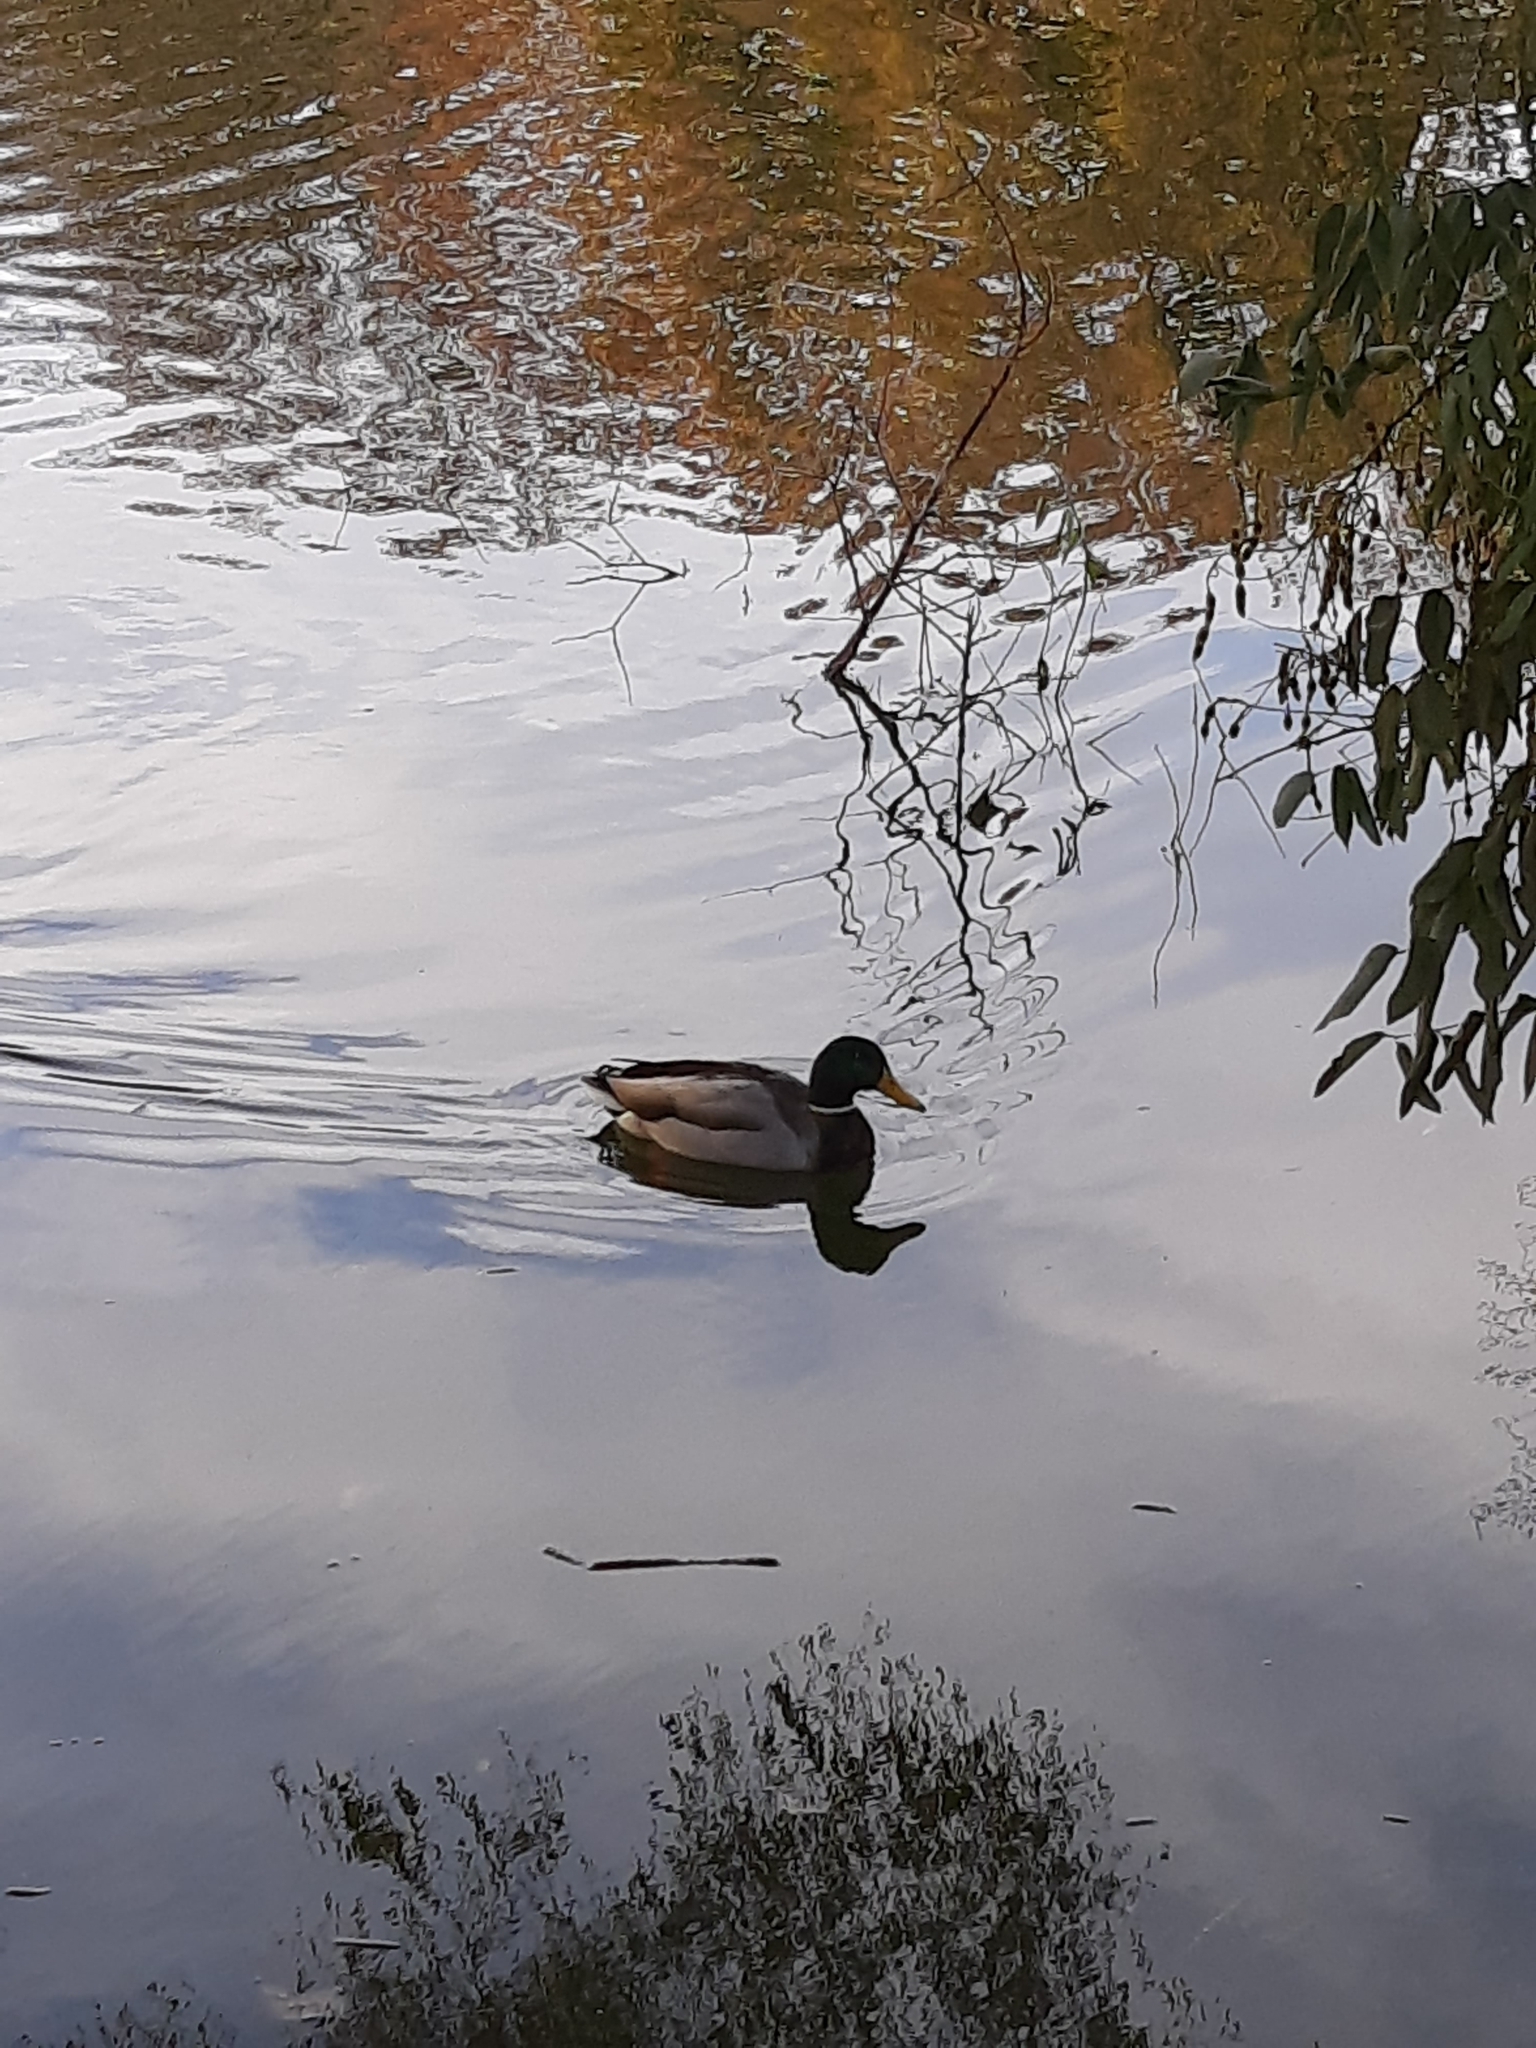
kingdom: Animalia
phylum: Chordata
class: Aves
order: Anseriformes
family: Anatidae
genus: Anas
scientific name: Anas platyrhynchos
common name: Mallard
